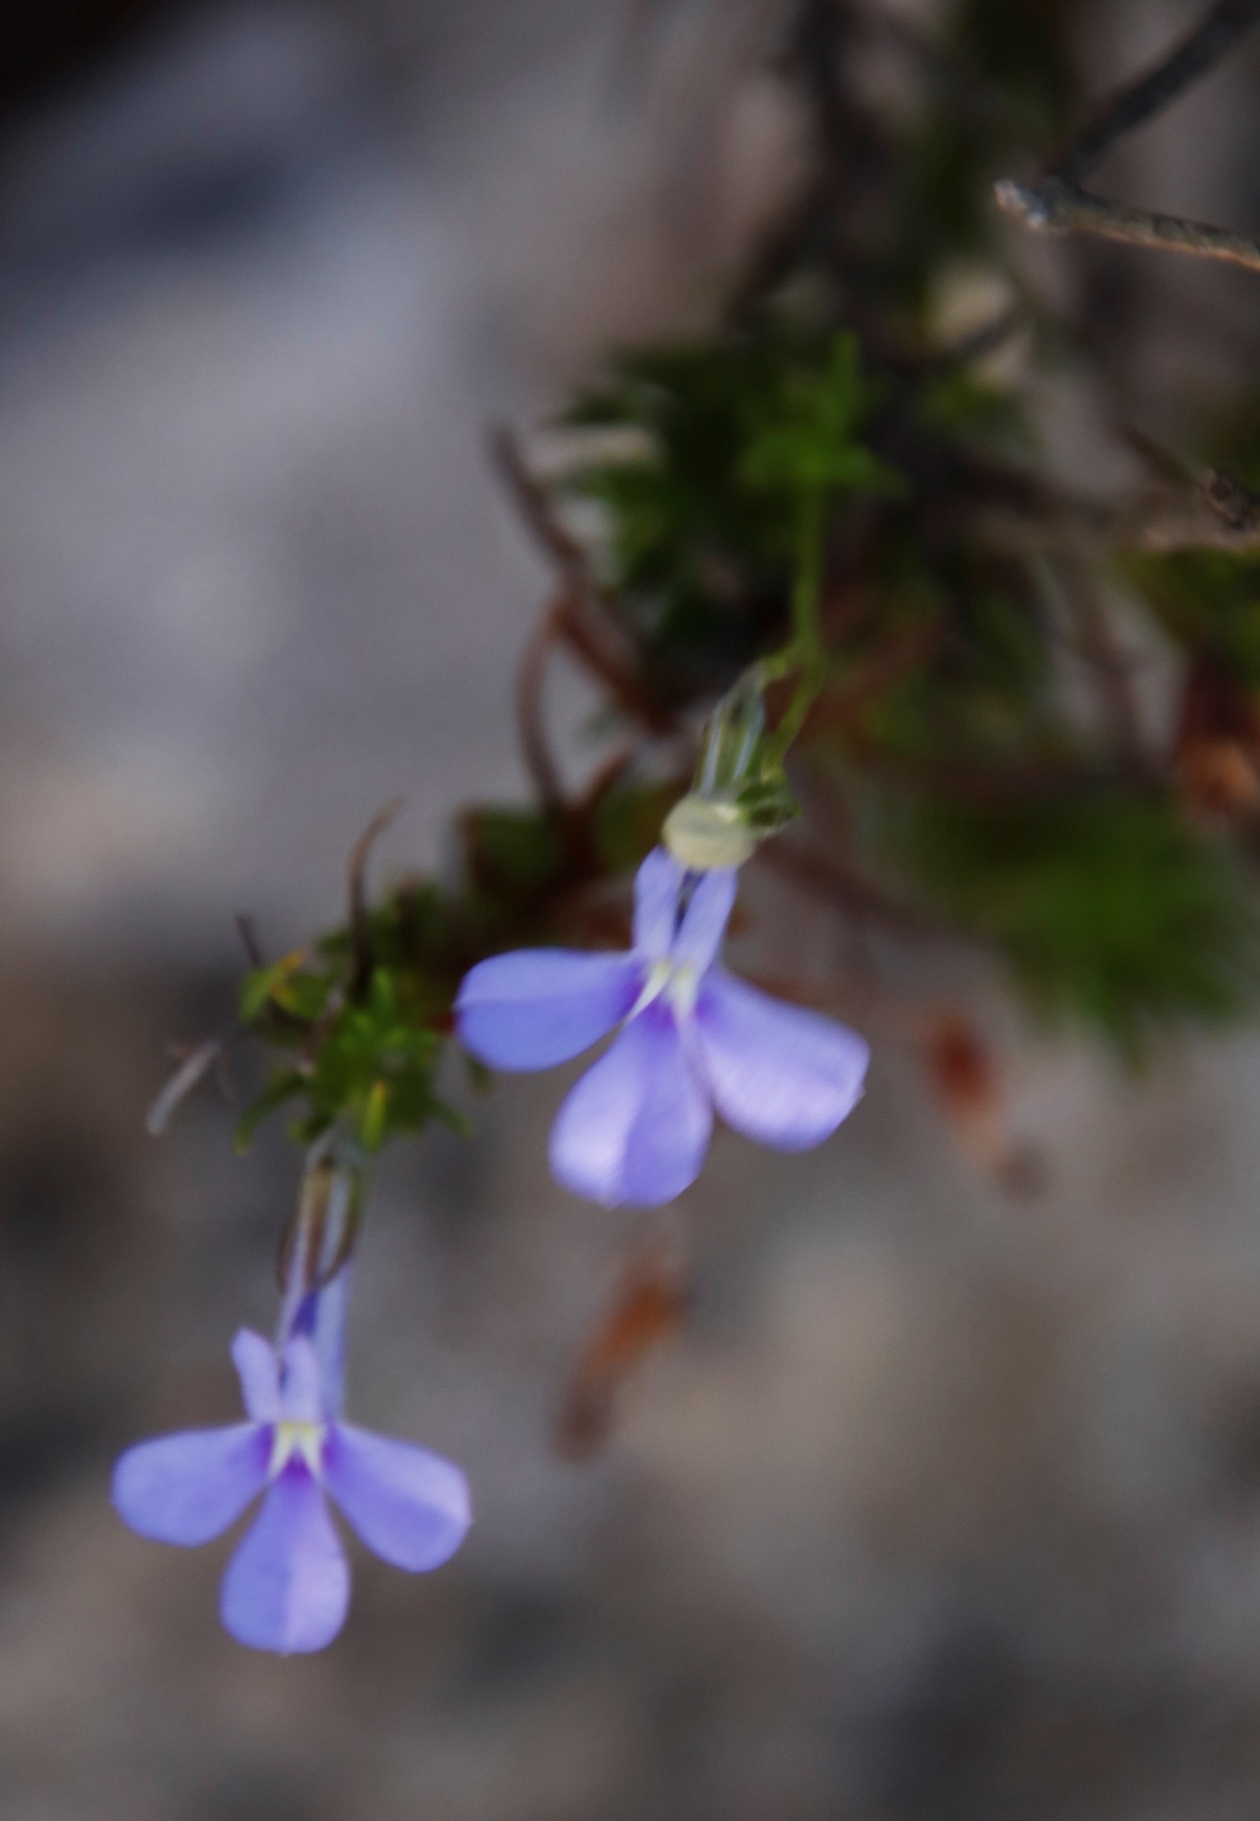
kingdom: Plantae
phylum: Tracheophyta
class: Magnoliopsida
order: Asterales
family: Campanulaceae
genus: Lobelia
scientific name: Lobelia pinifolia
